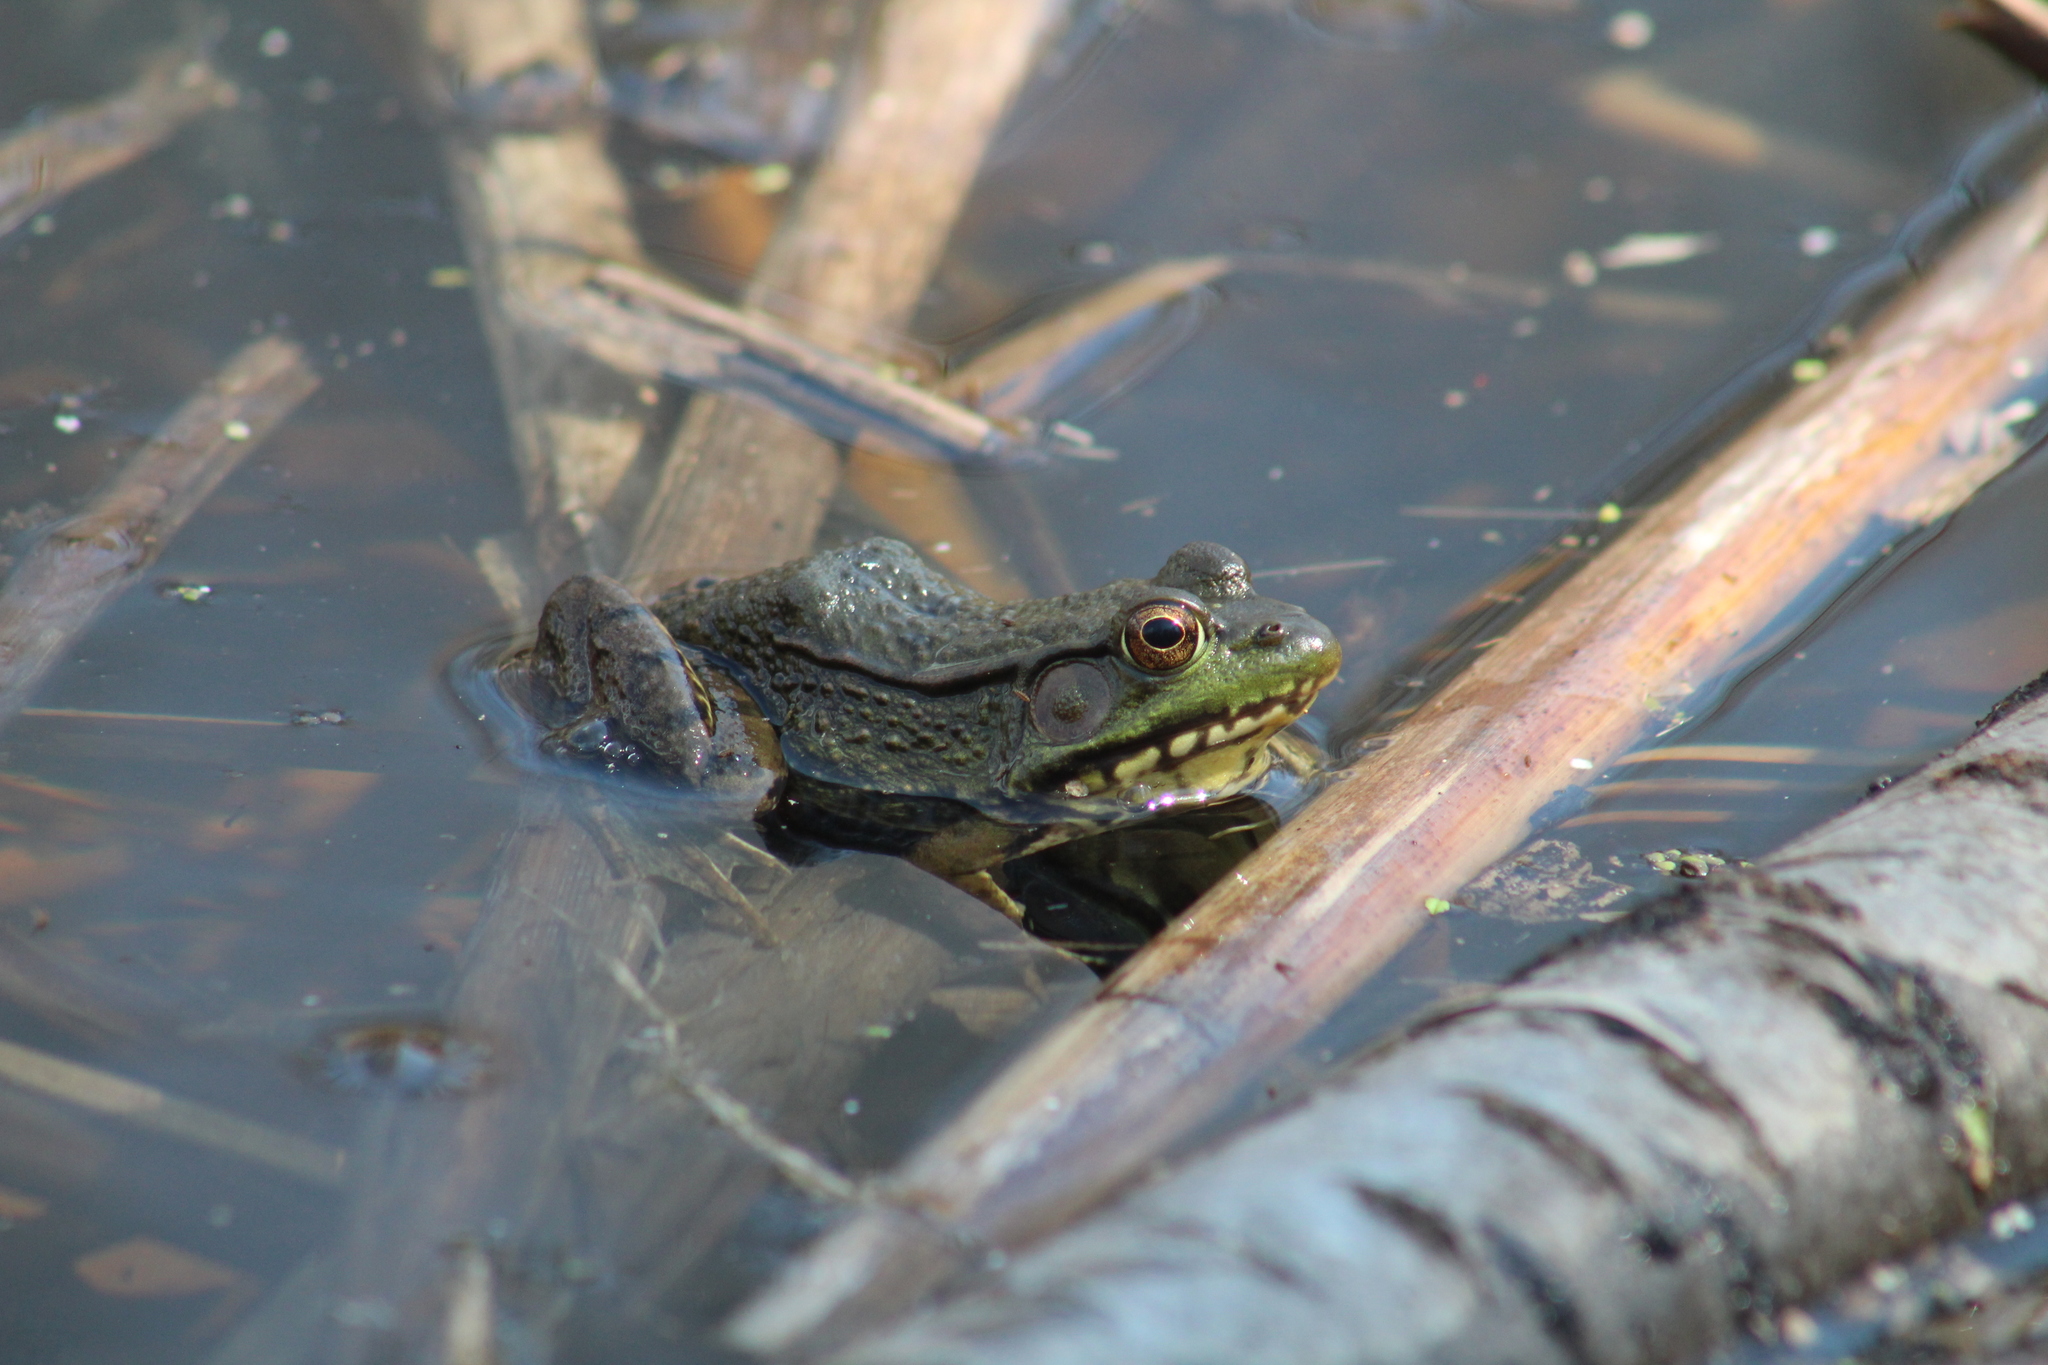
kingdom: Animalia
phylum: Chordata
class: Amphibia
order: Anura
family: Ranidae
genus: Lithobates
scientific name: Lithobates clamitans
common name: Green frog
